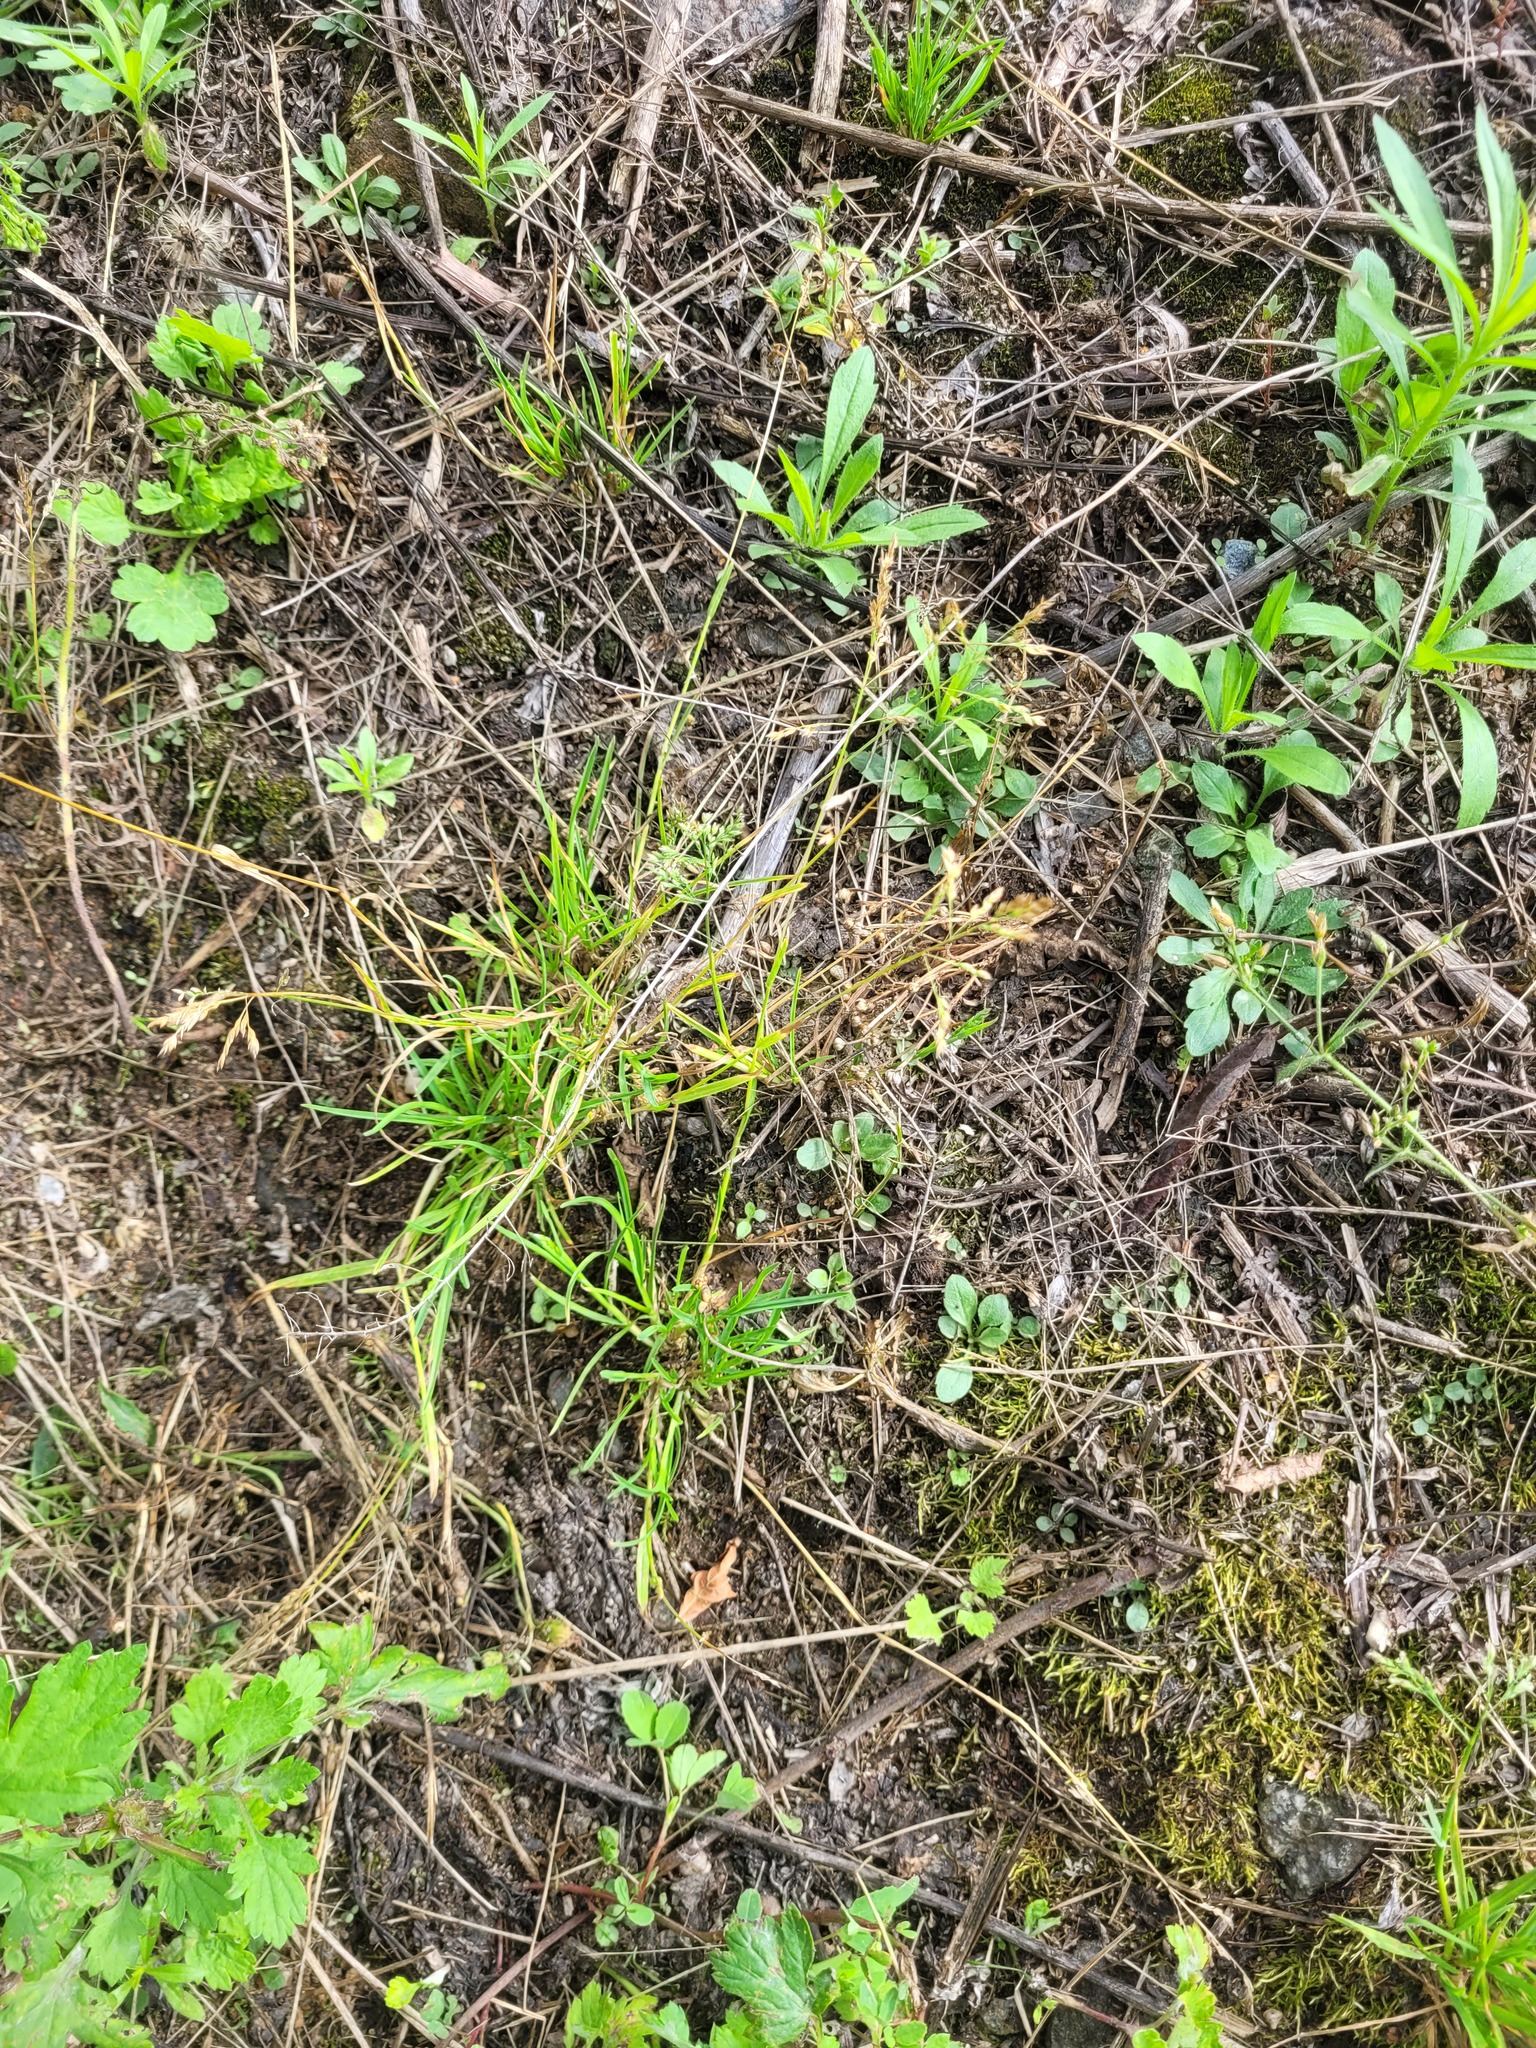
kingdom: Plantae
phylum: Tracheophyta
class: Liliopsida
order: Poales
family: Poaceae
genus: Poa
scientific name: Poa annua
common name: Annual bluegrass
